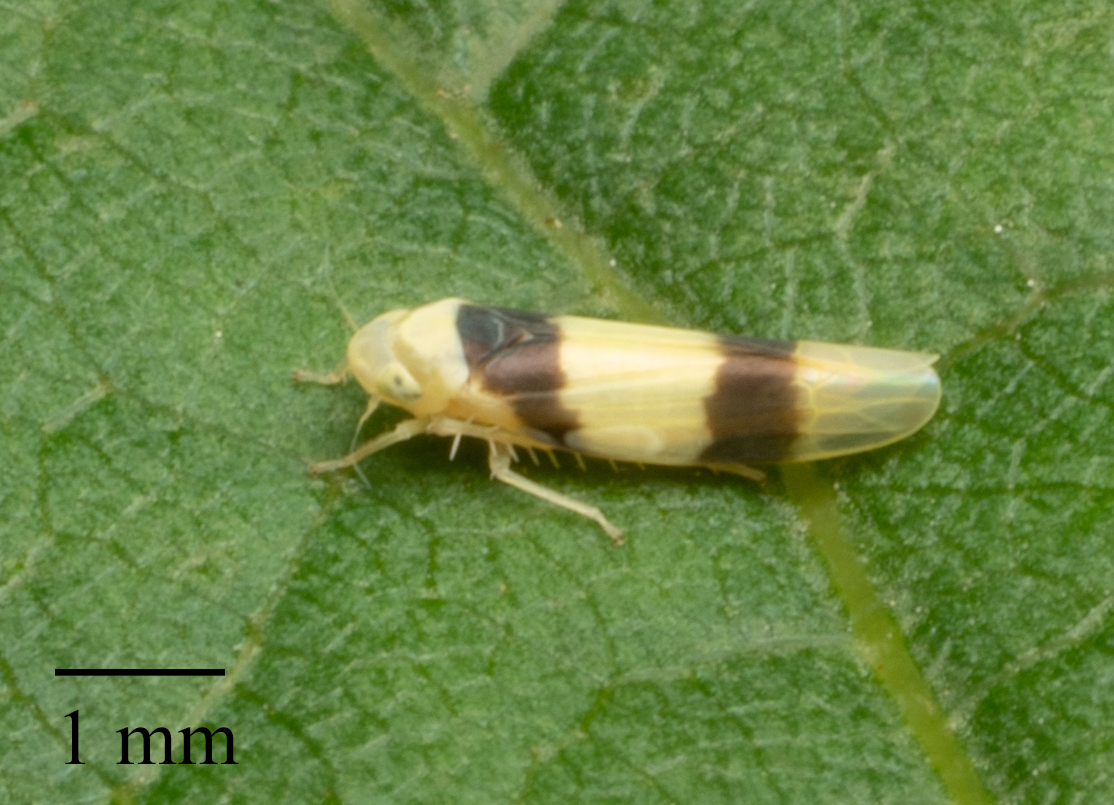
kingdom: Animalia
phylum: Arthropoda
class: Insecta
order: Hemiptera
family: Cicadellidae
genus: Zonocyba
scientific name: Zonocyba bifasciata
